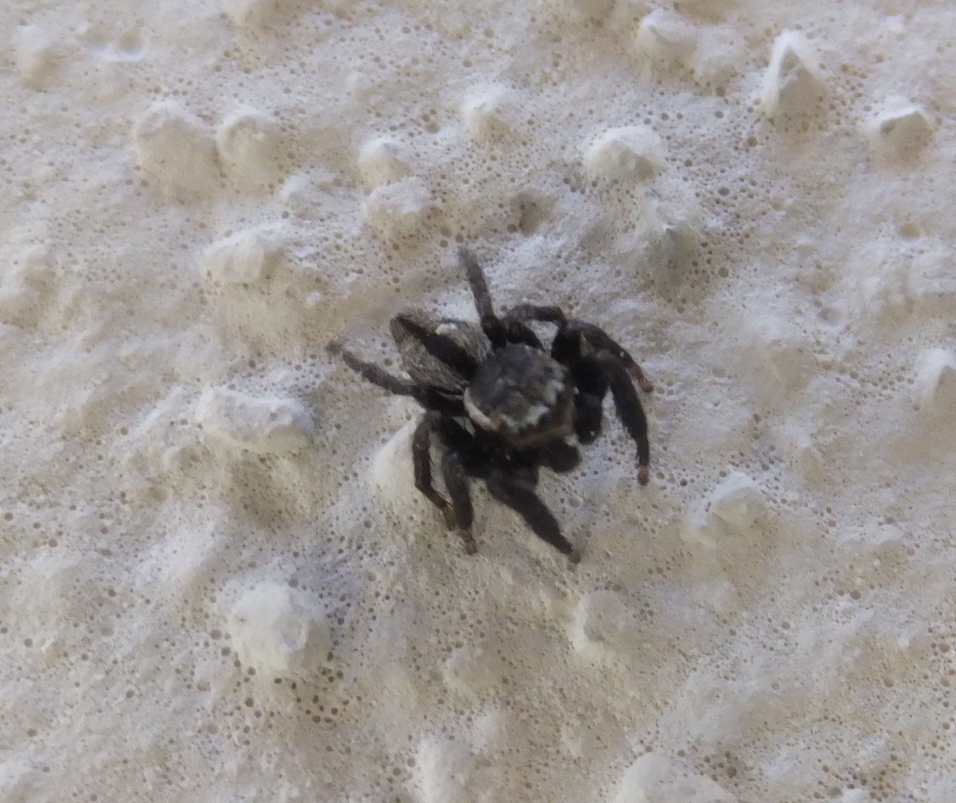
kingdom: Animalia
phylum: Arthropoda
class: Arachnida
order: Araneae
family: Salticidae
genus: Evarcha
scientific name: Evarcha michailovi
